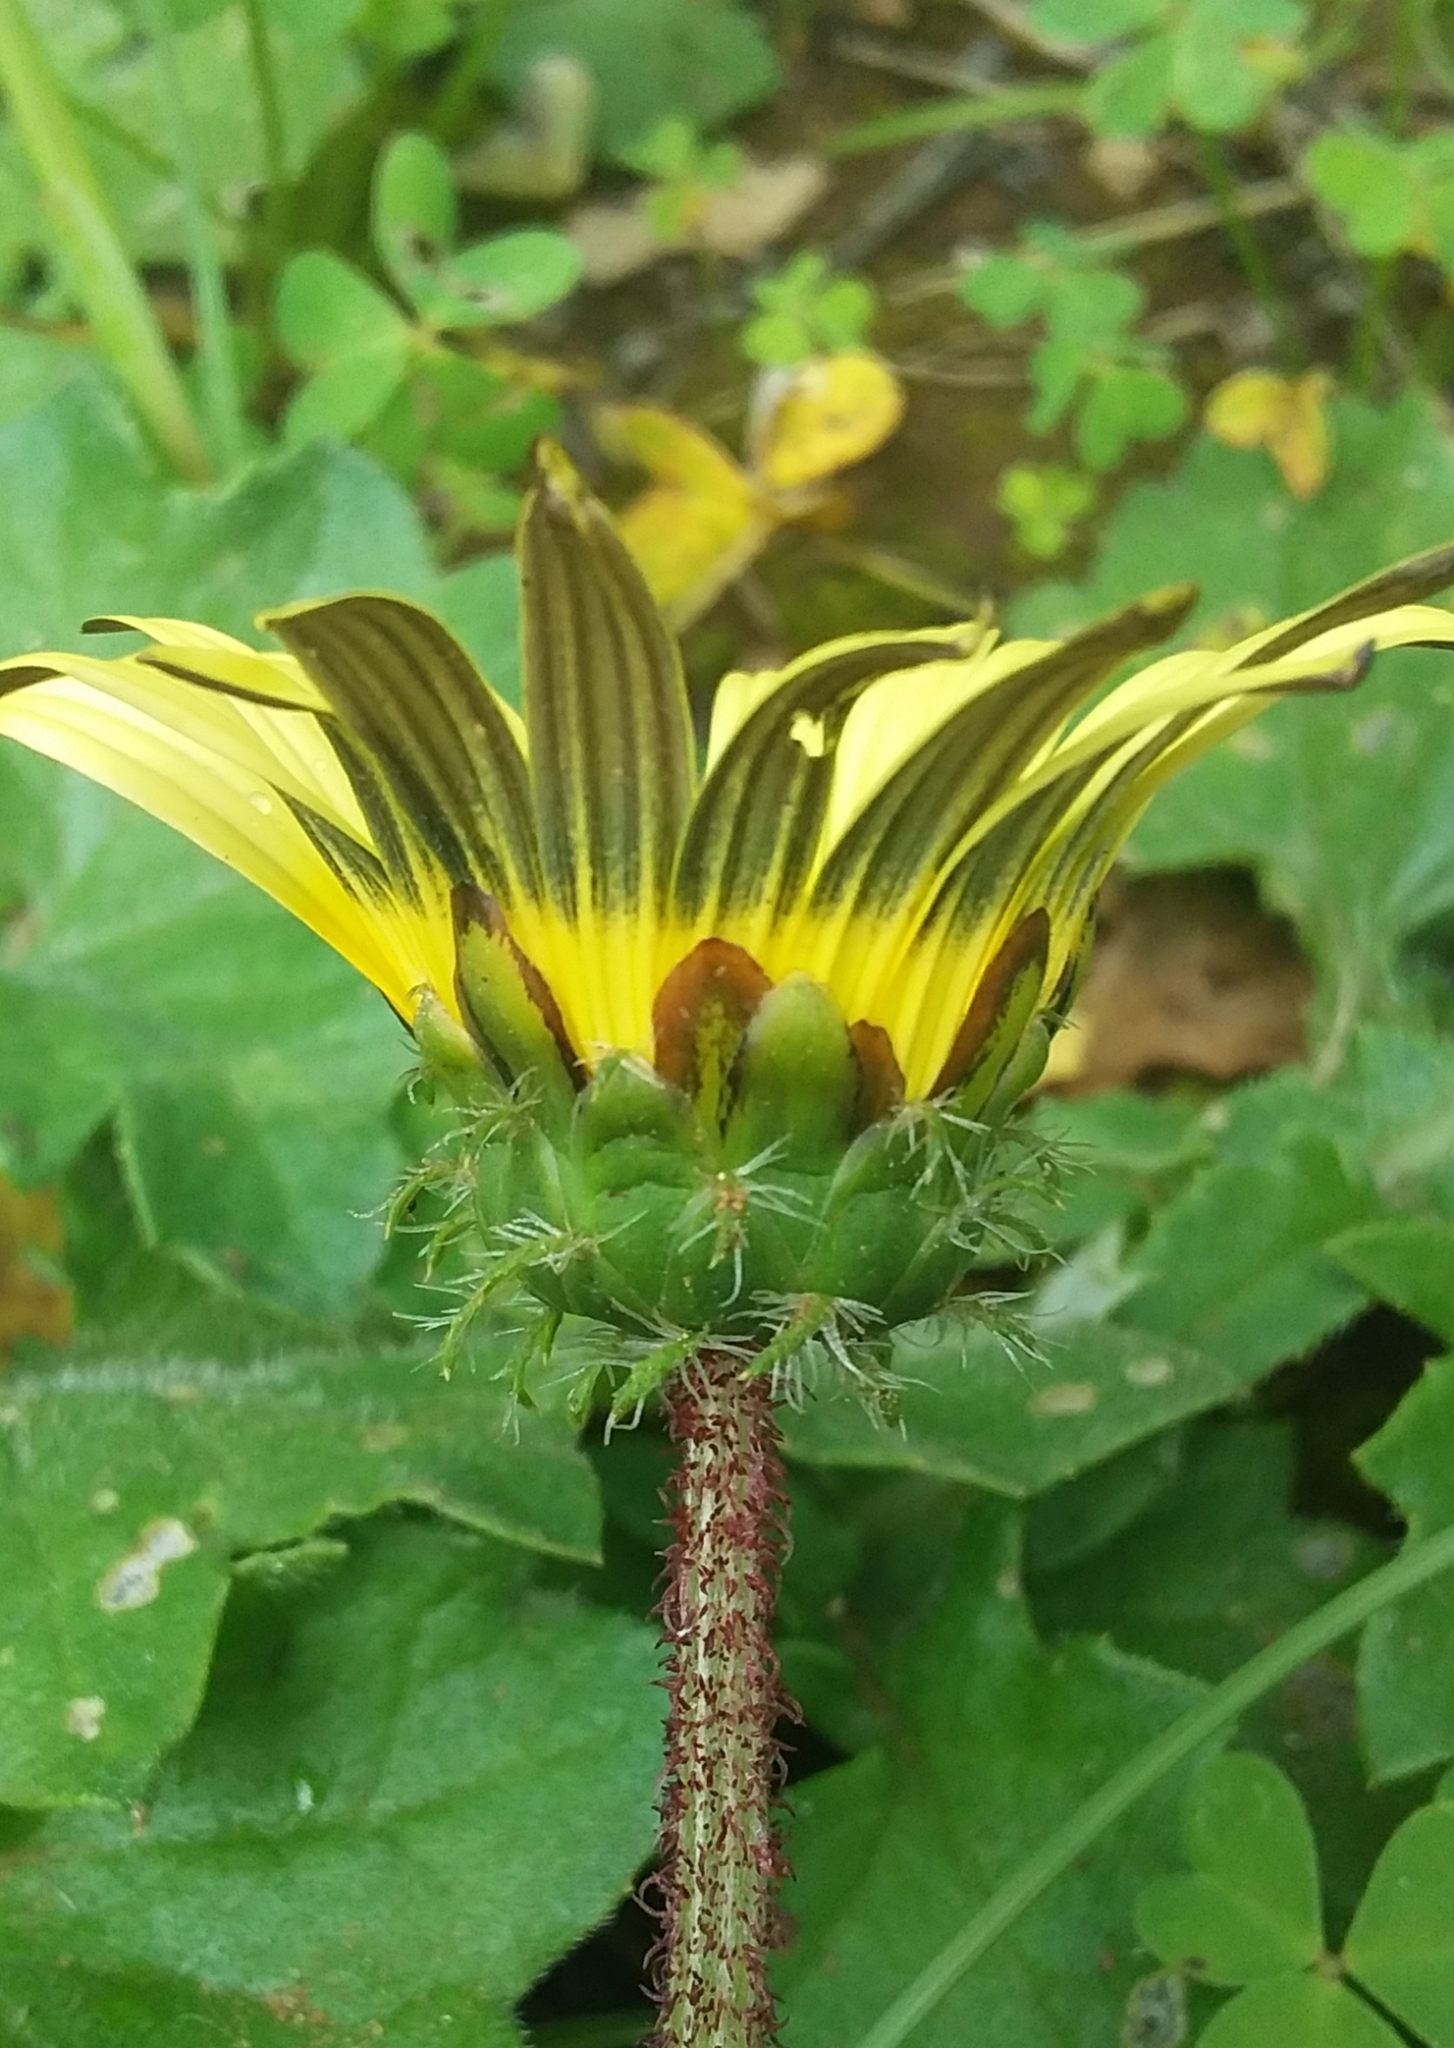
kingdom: Plantae
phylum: Tracheophyta
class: Magnoliopsida
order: Asterales
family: Asteraceae
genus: Arctotheca
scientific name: Arctotheca calendula
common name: Capeweed
